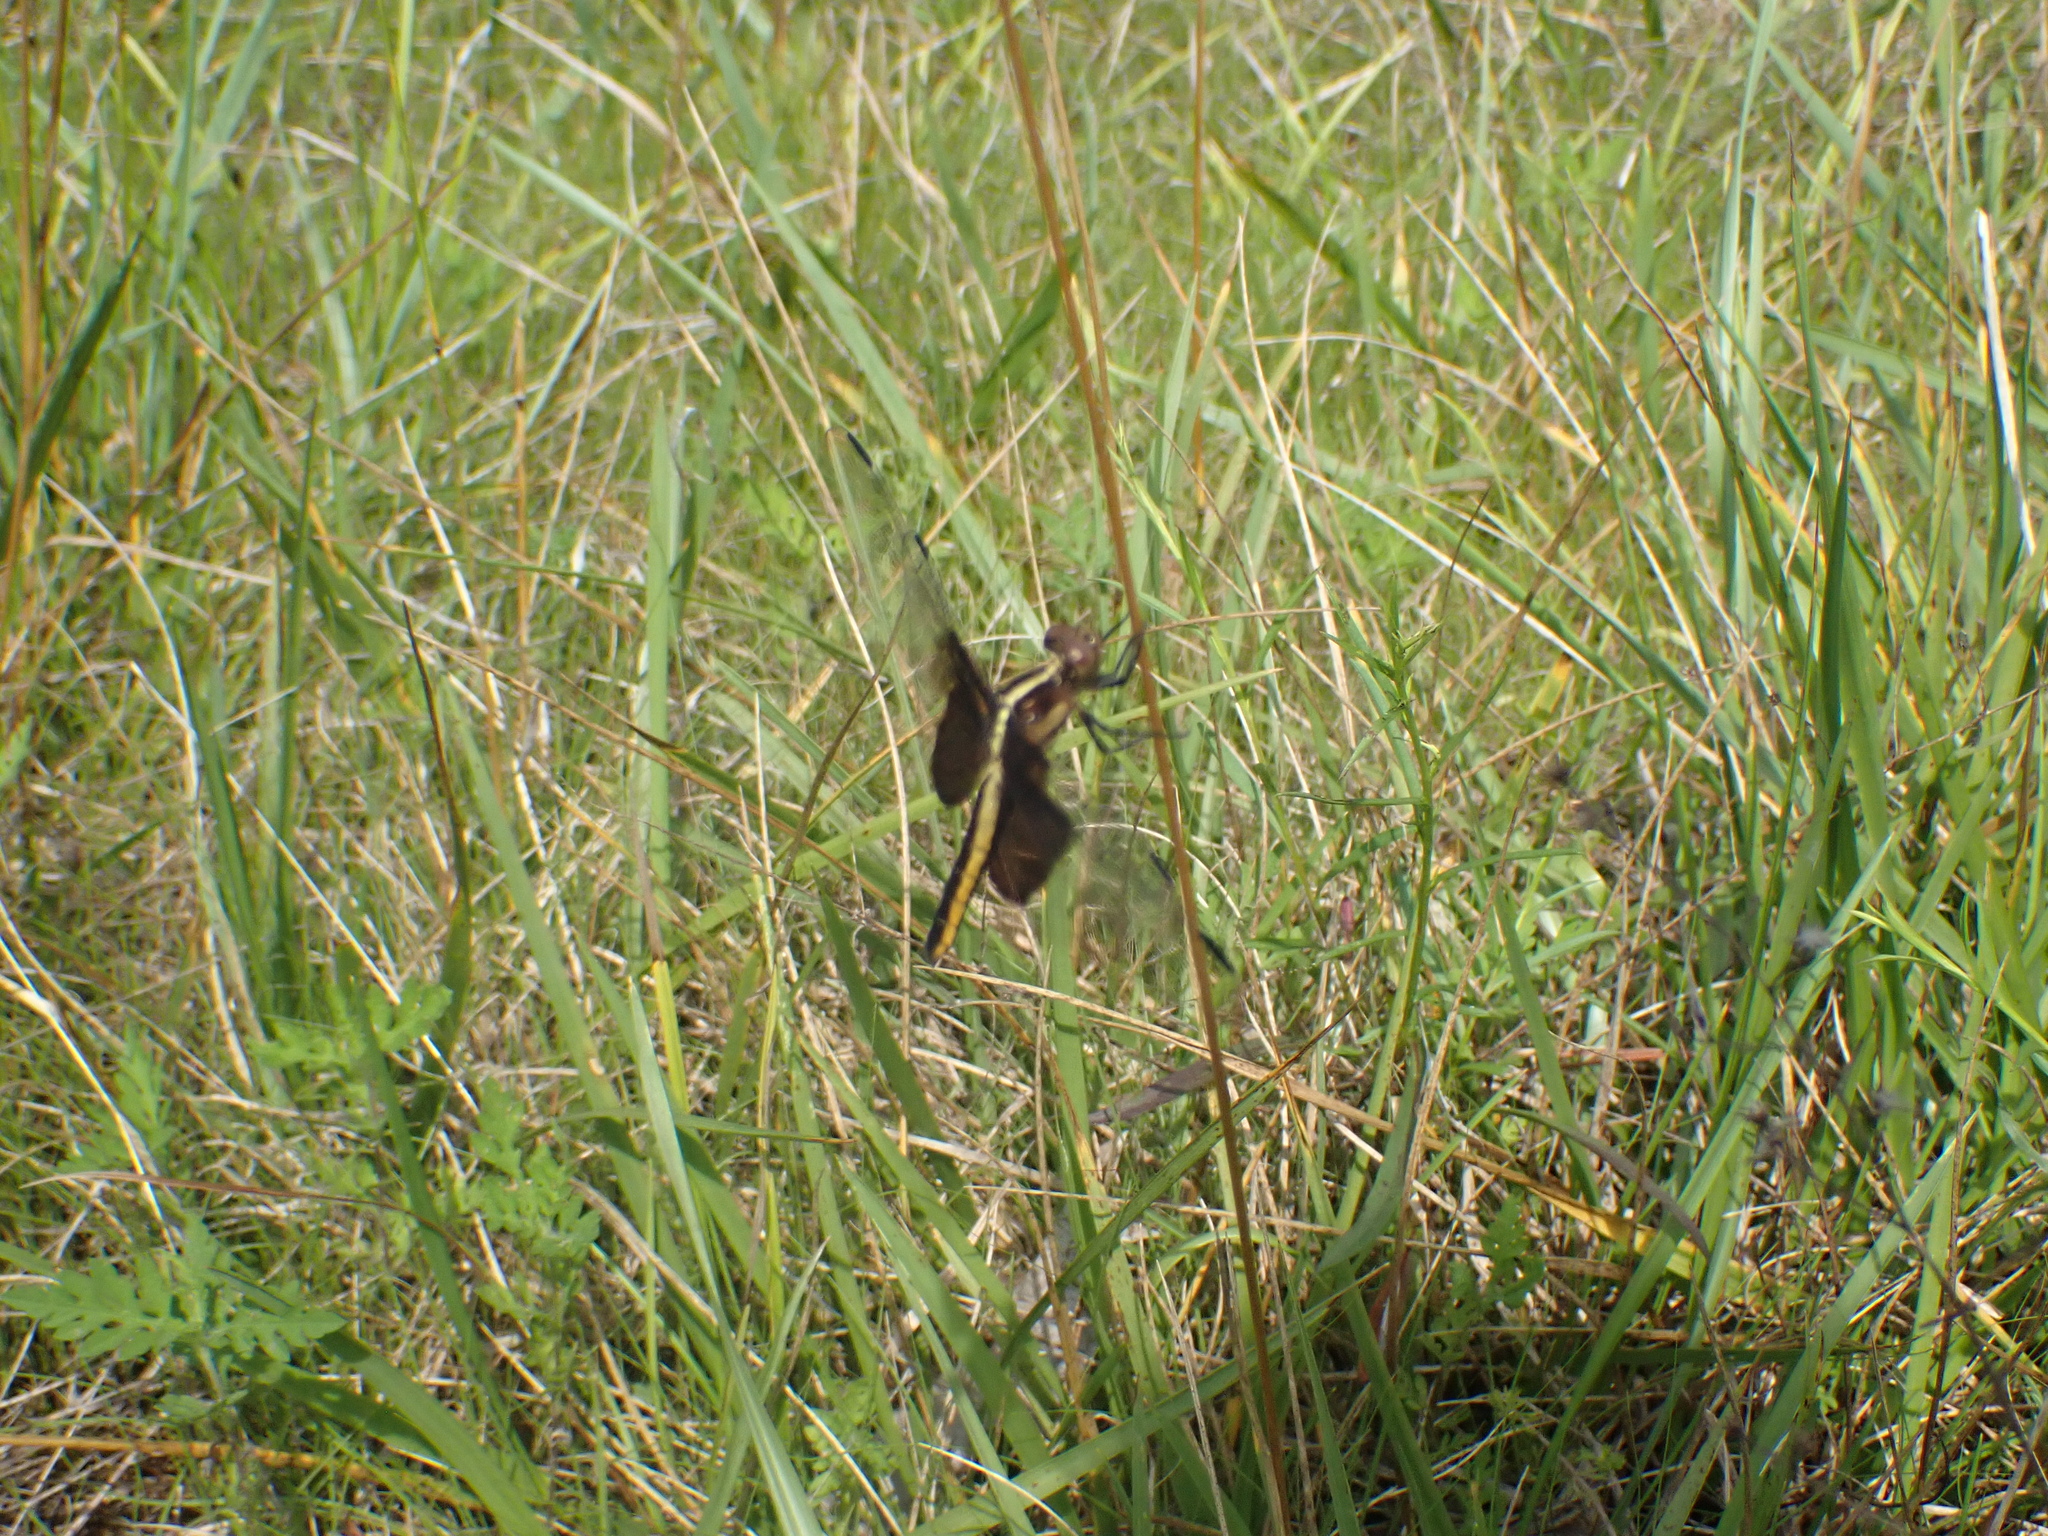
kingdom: Animalia
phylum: Arthropoda
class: Insecta
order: Odonata
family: Libellulidae
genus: Libellula
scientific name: Libellula luctuosa
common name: Widow skimmer
